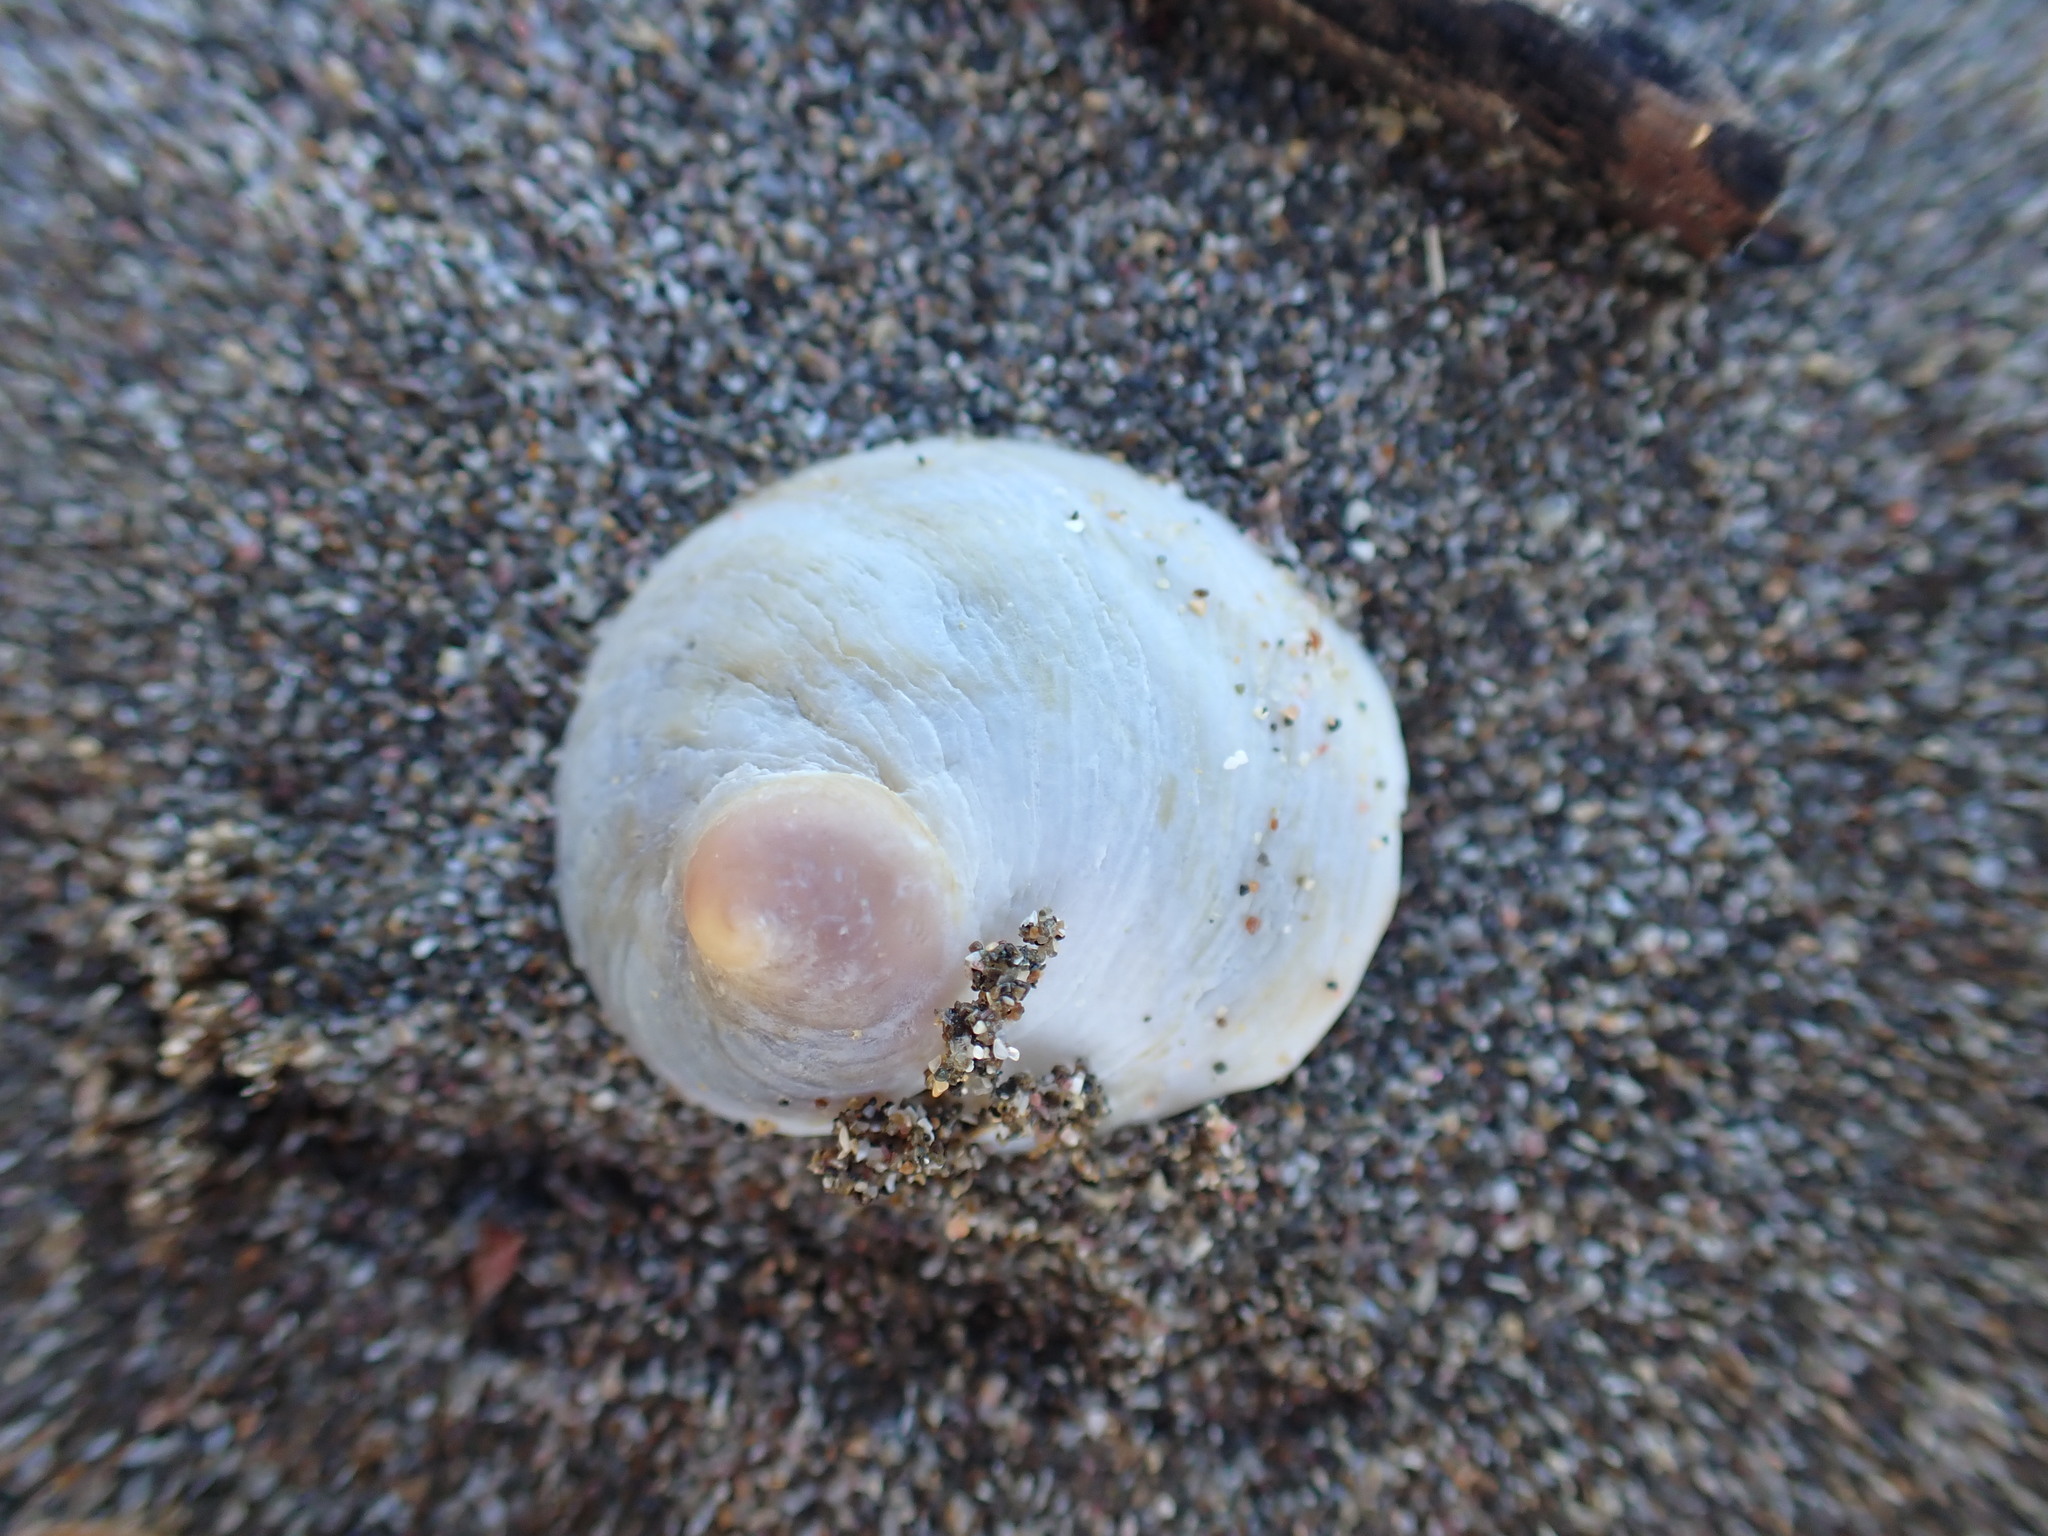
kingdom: Animalia
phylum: Mollusca
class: Gastropoda
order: Littorinimorpha
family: Calyptraeidae
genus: Sigapatella
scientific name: Sigapatella novaezelandiae
